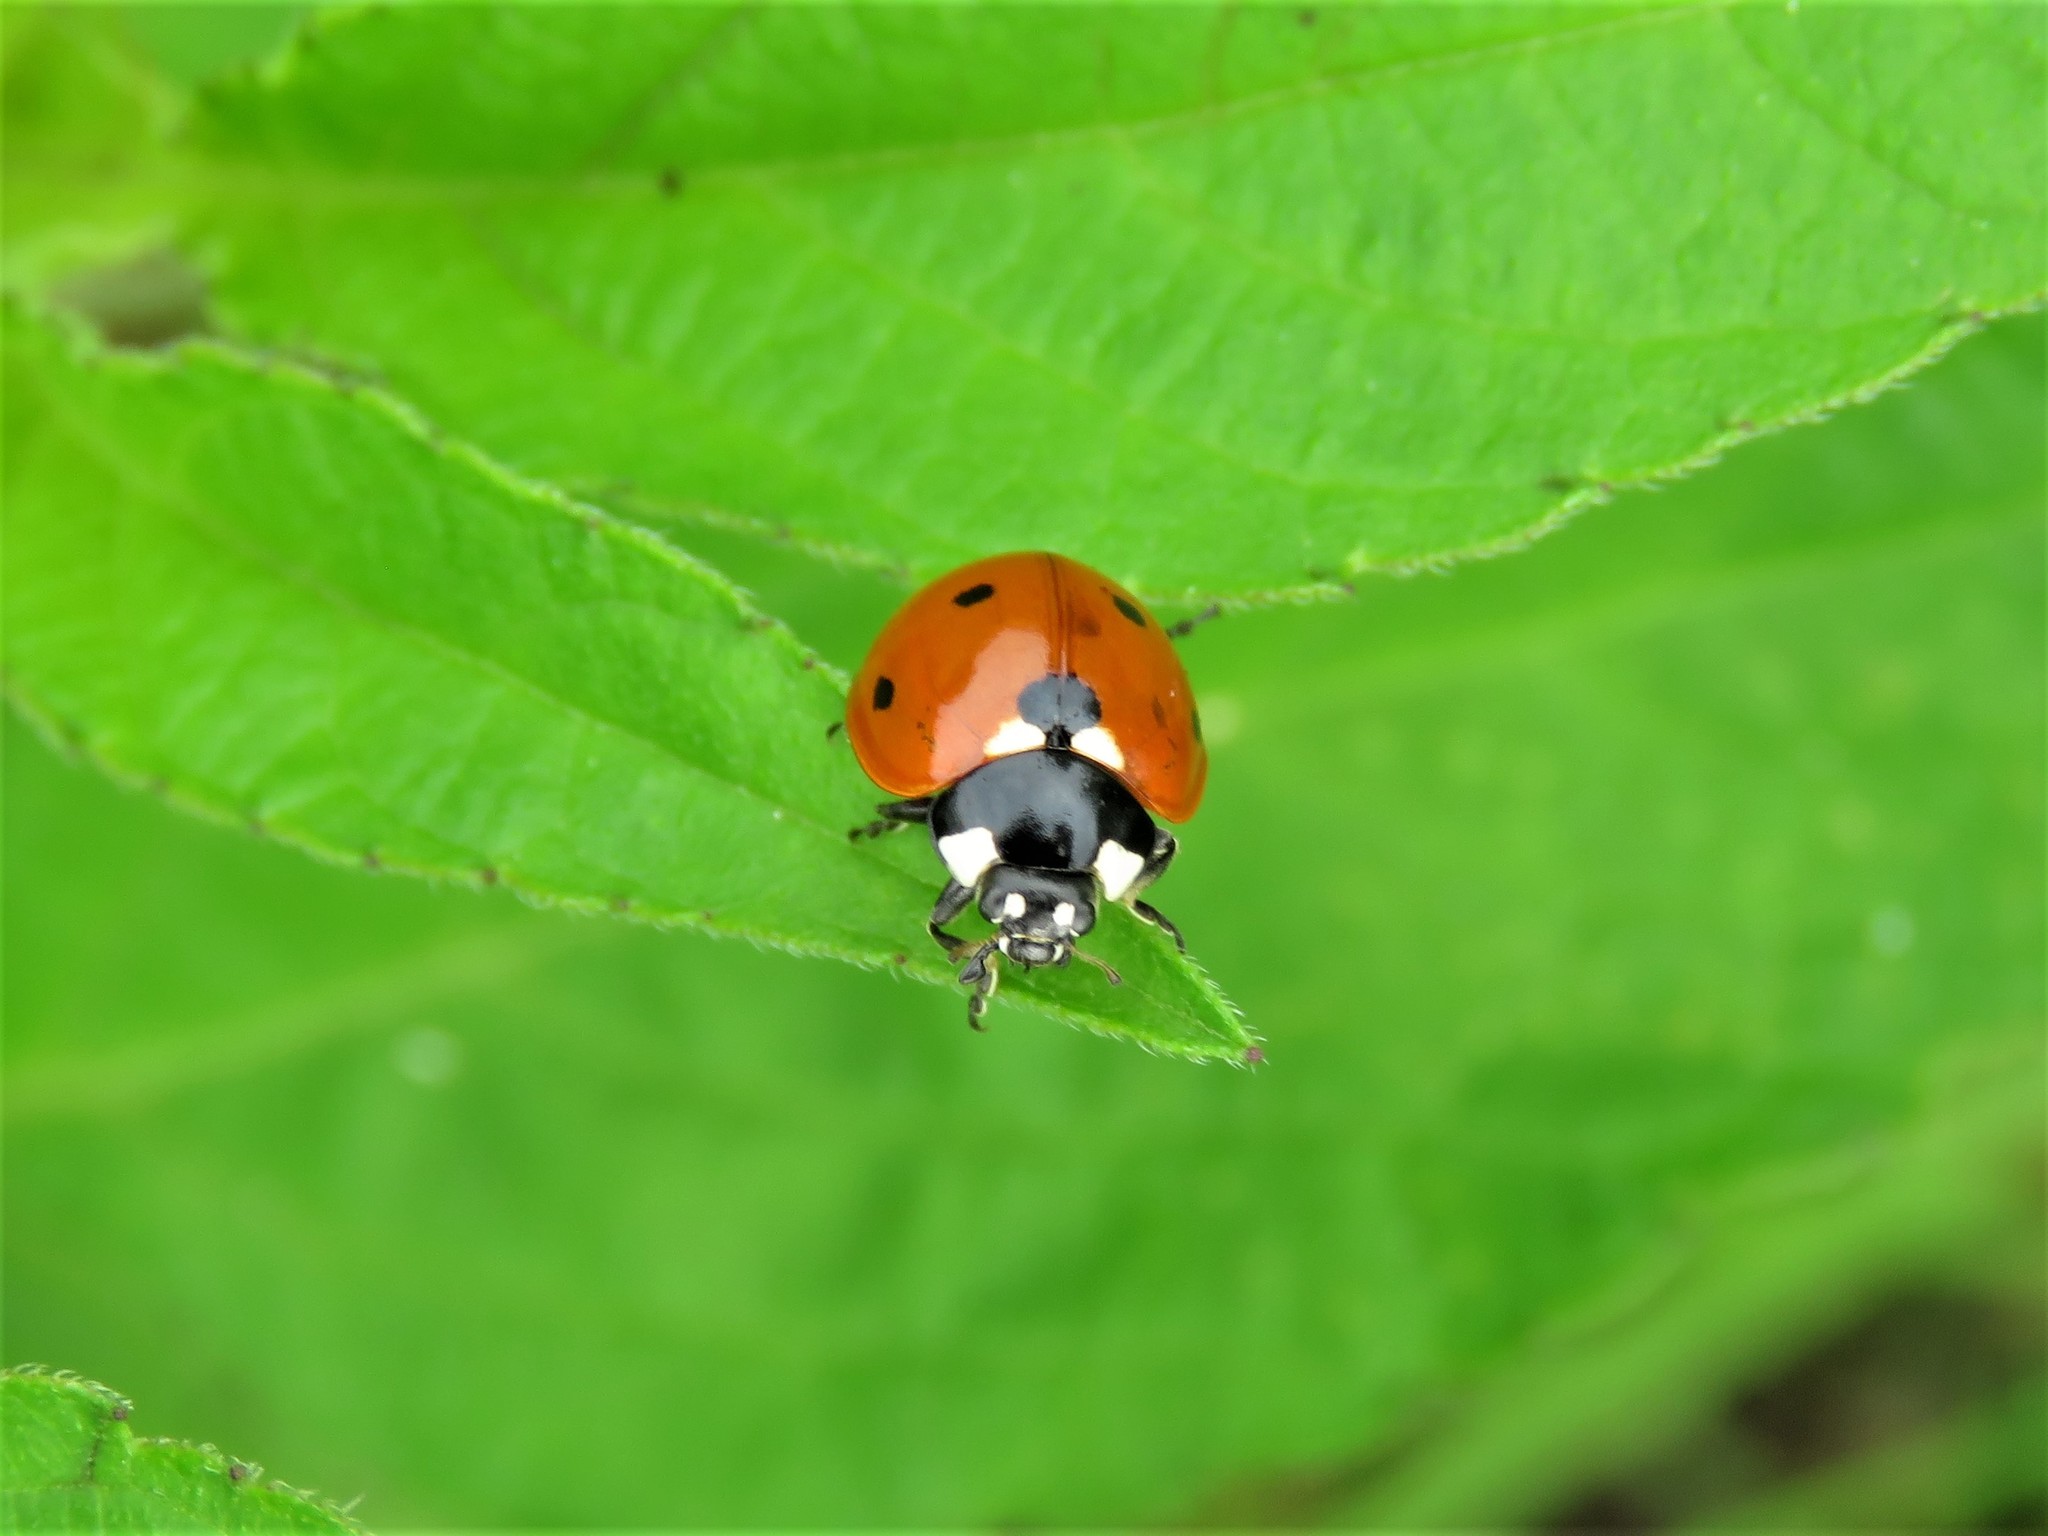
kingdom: Animalia
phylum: Arthropoda
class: Insecta
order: Coleoptera
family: Coccinellidae
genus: Coccinella
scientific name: Coccinella septempunctata
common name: Sevenspotted lady beetle
